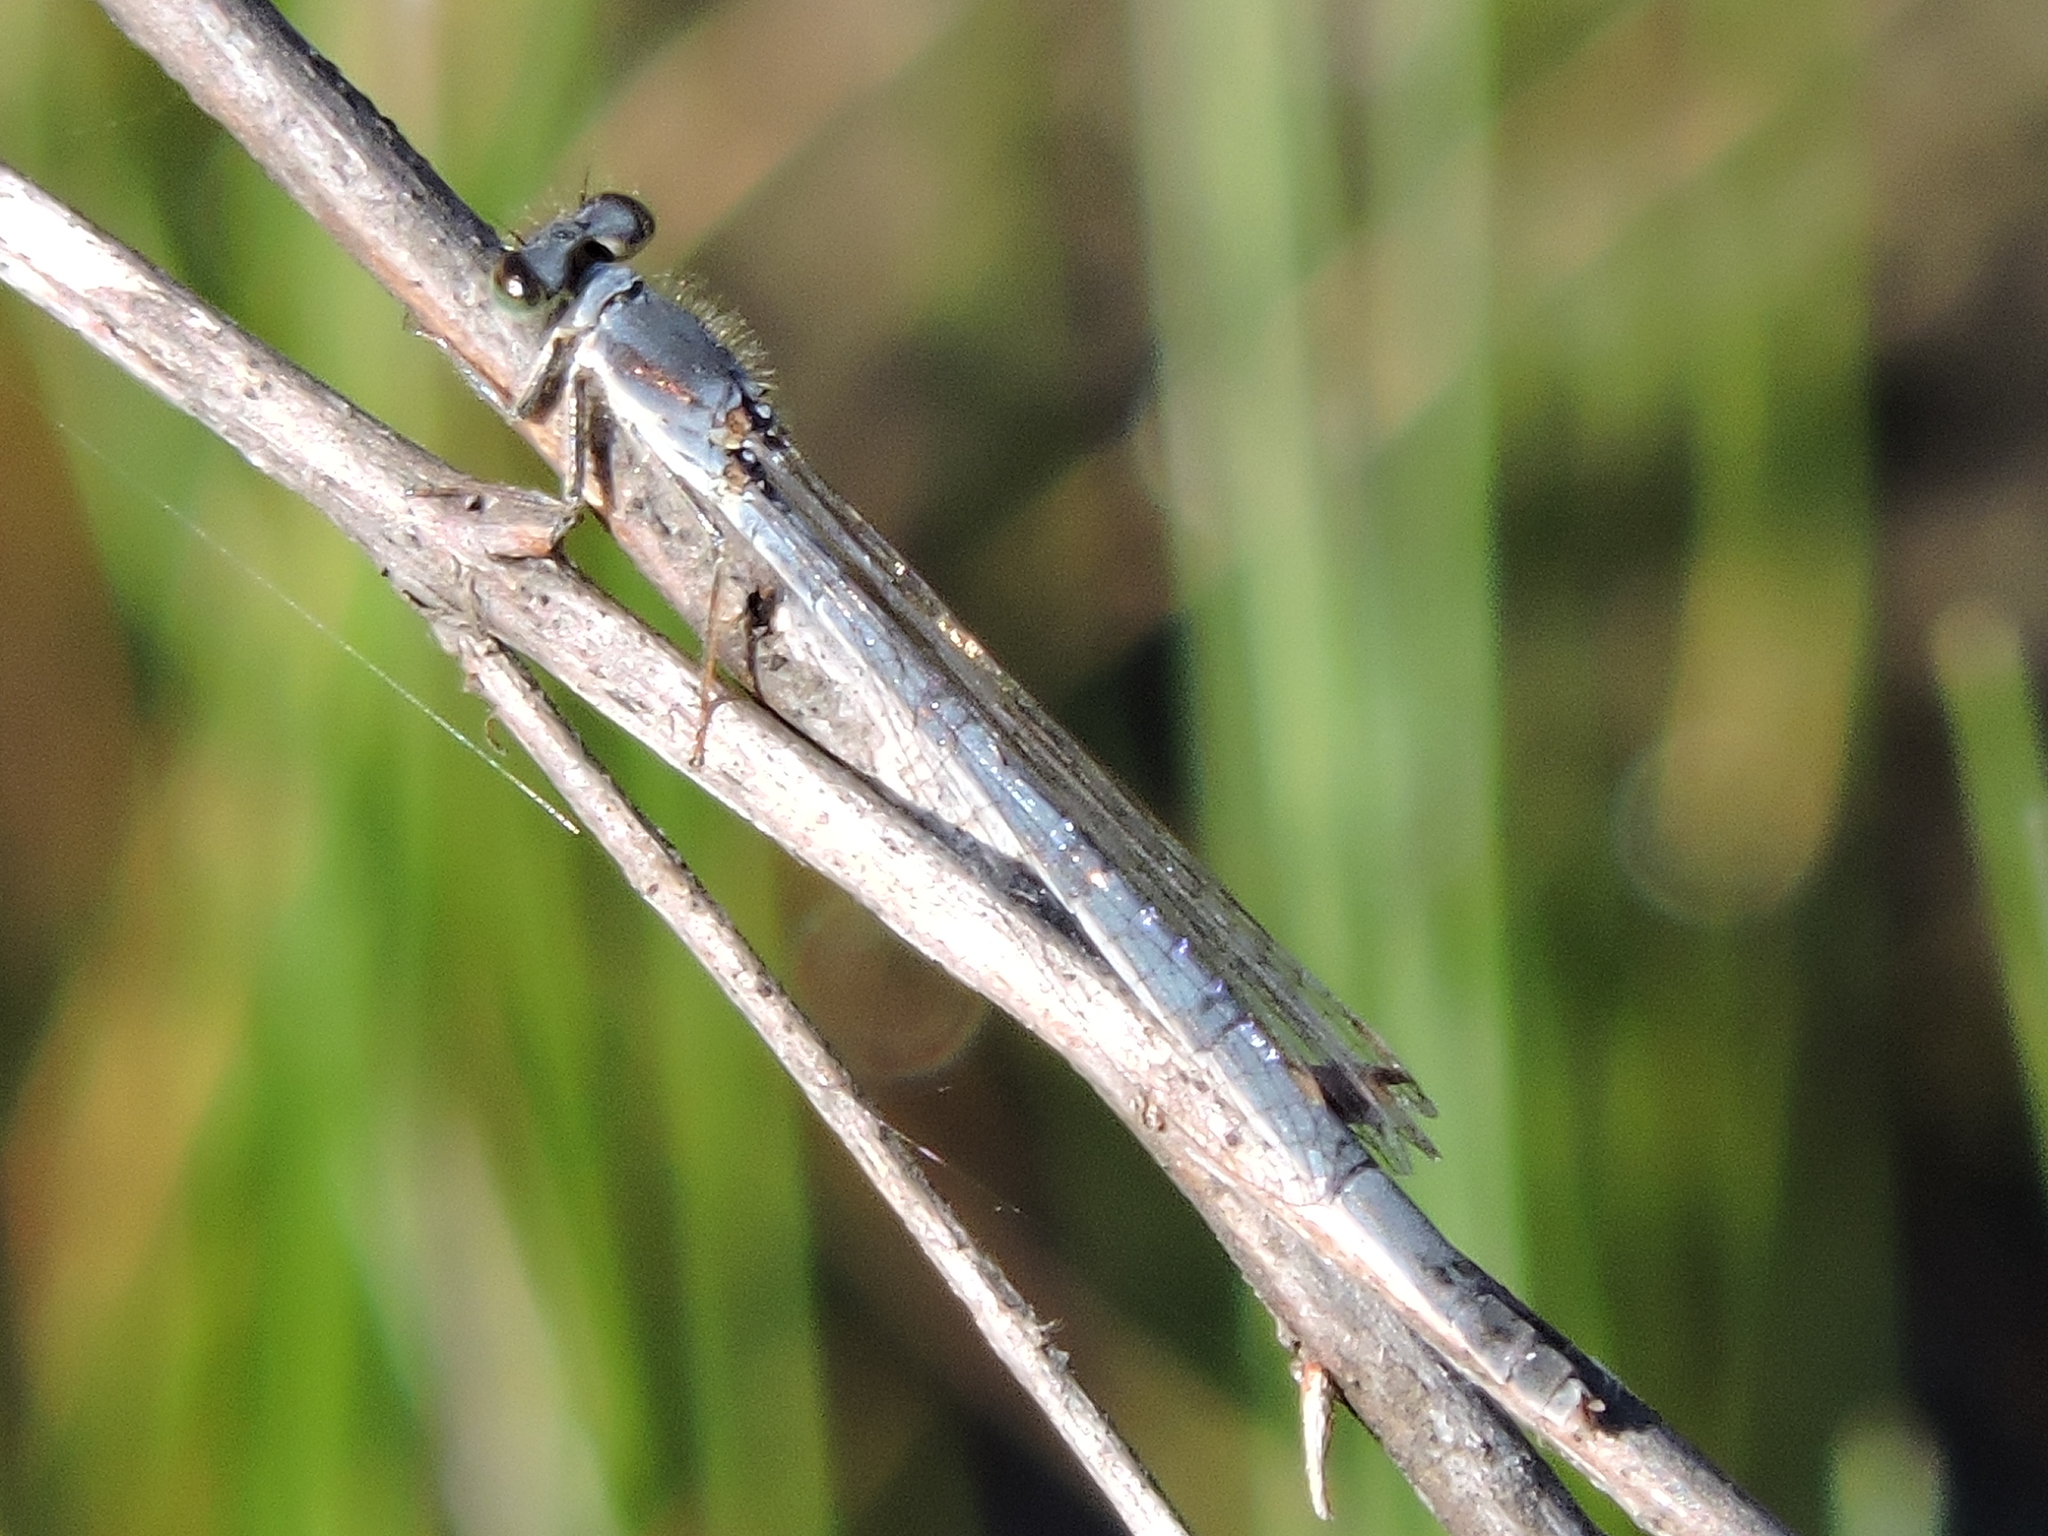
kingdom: Animalia
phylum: Arthropoda
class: Insecta
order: Odonata
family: Coenagrionidae
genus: Ischnura
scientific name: Ischnura posita
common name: Fragile forktail
